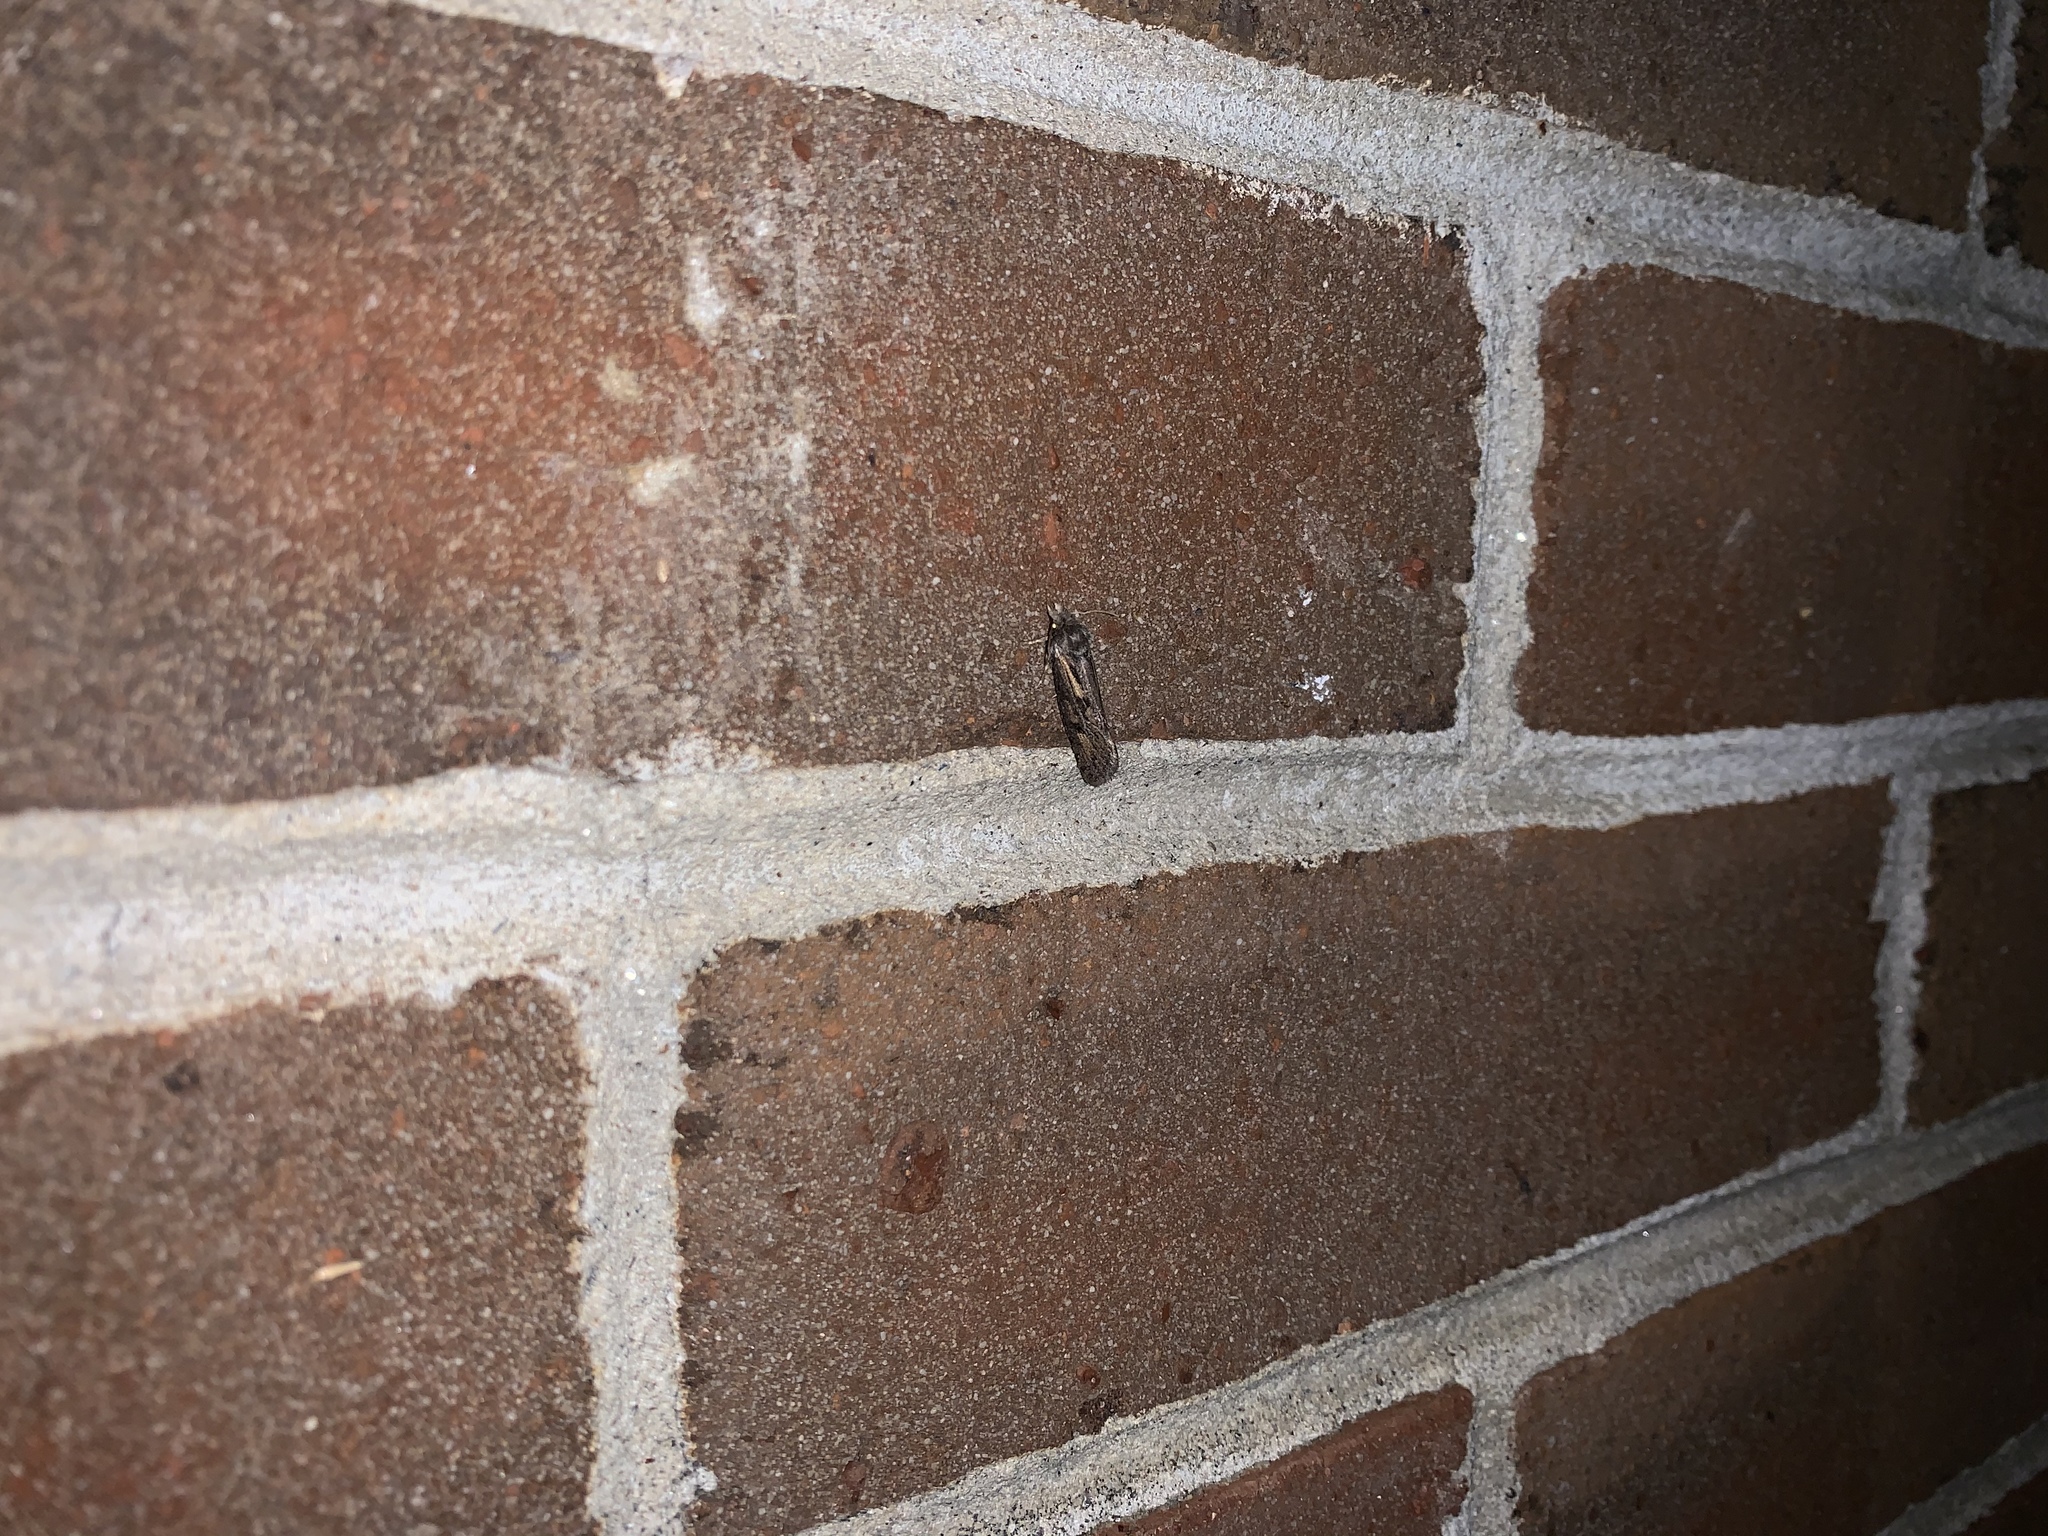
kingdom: Animalia
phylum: Arthropoda
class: Insecta
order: Lepidoptera
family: Tineidae
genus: Acrolophus
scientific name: Acrolophus popeanella
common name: Clemens' grass tubeworm moth
